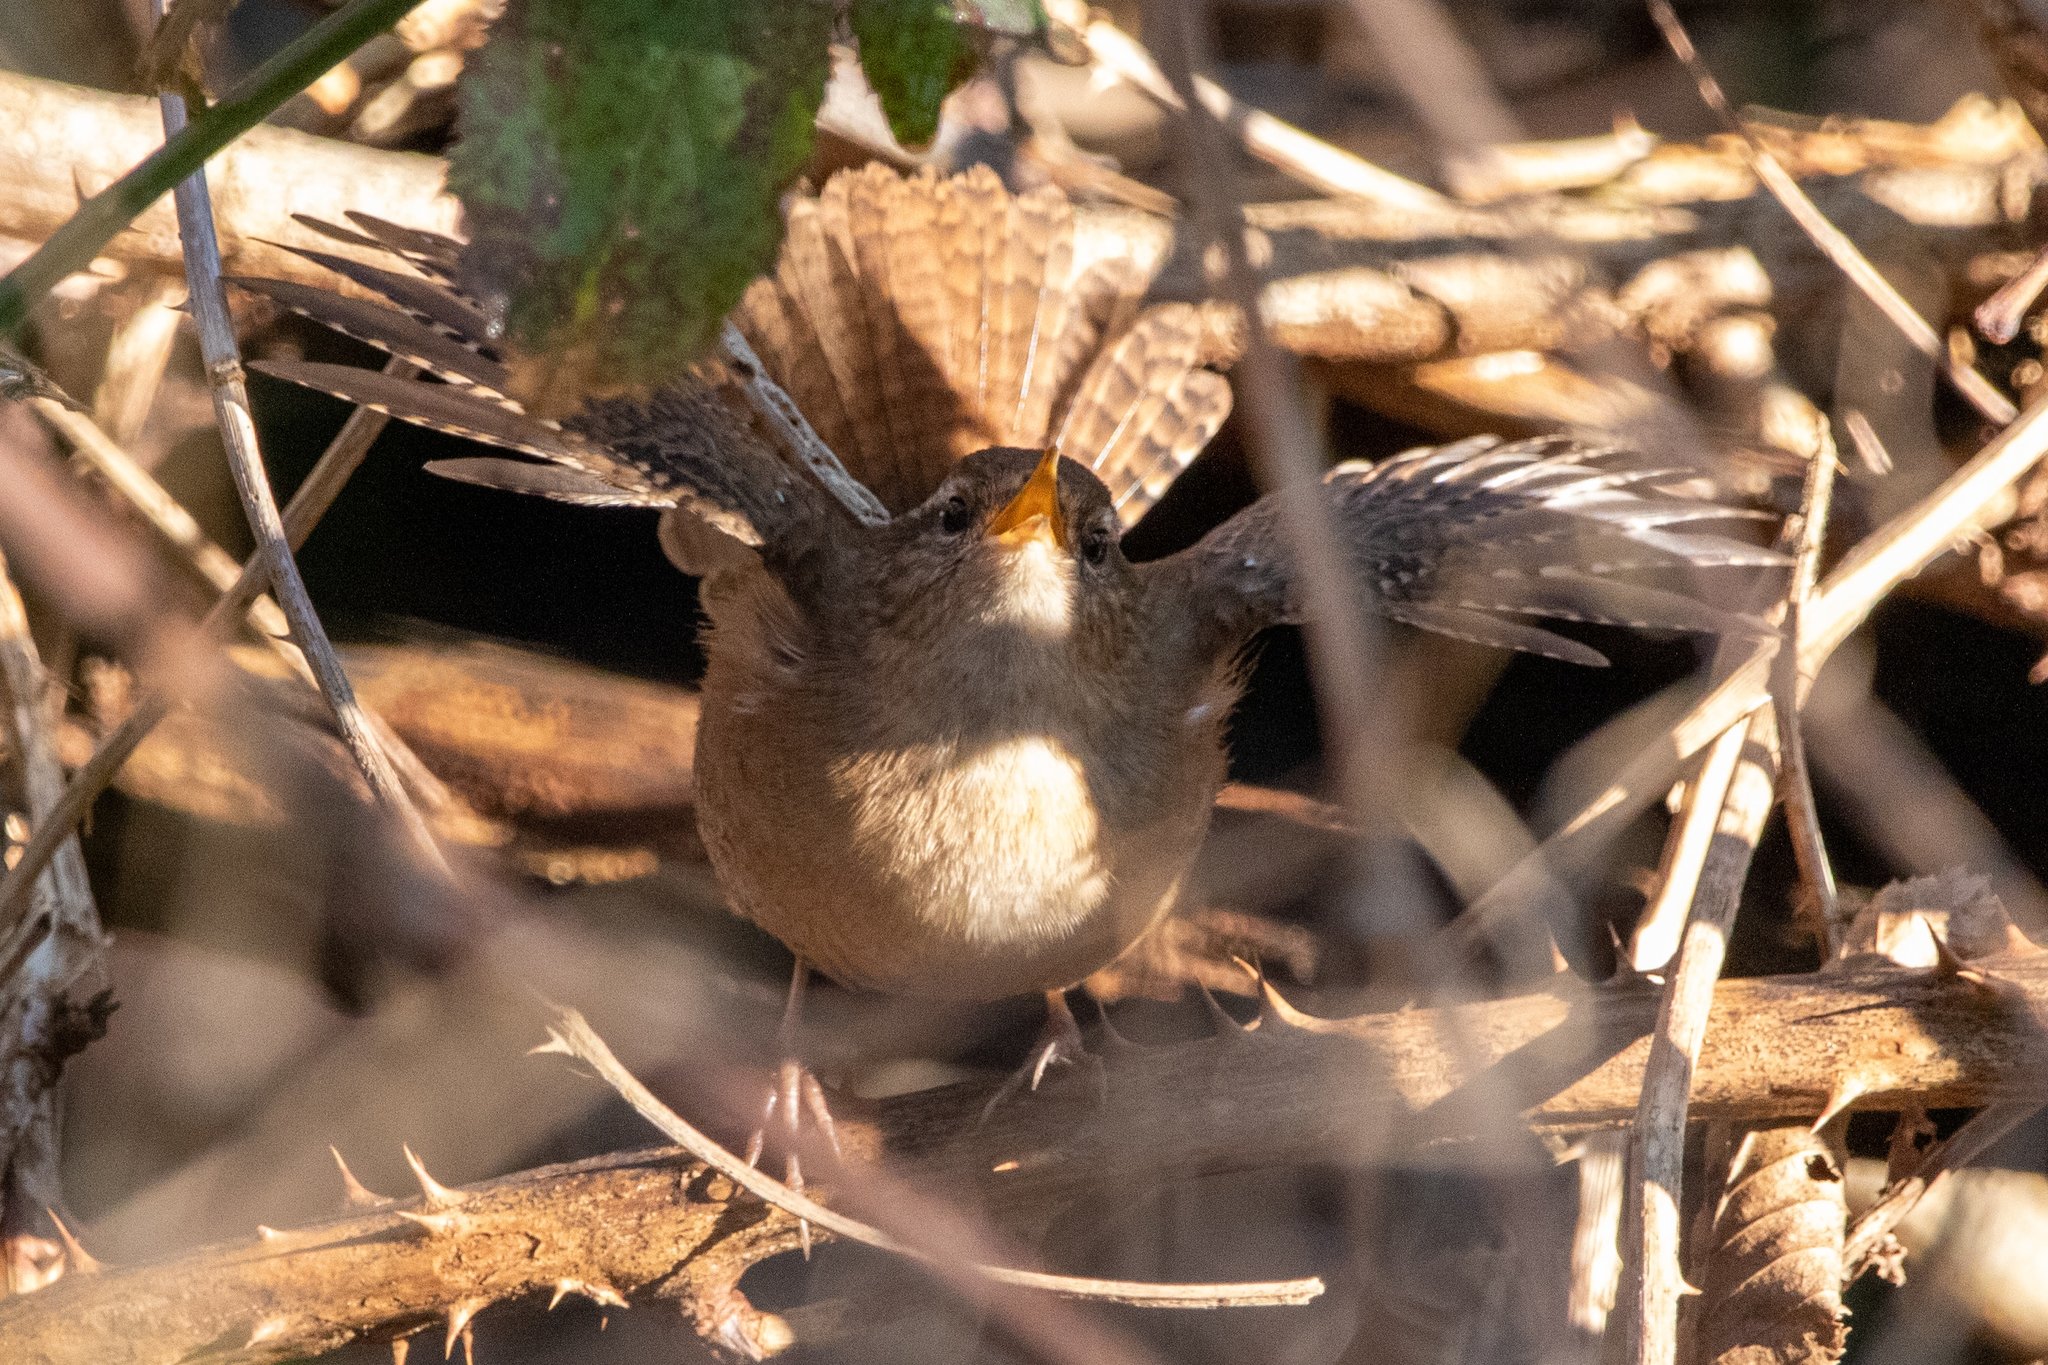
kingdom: Animalia
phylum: Chordata
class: Aves
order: Passeriformes
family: Troglodytidae
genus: Troglodytes
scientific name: Troglodytes troglodytes
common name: Eurasian wren
